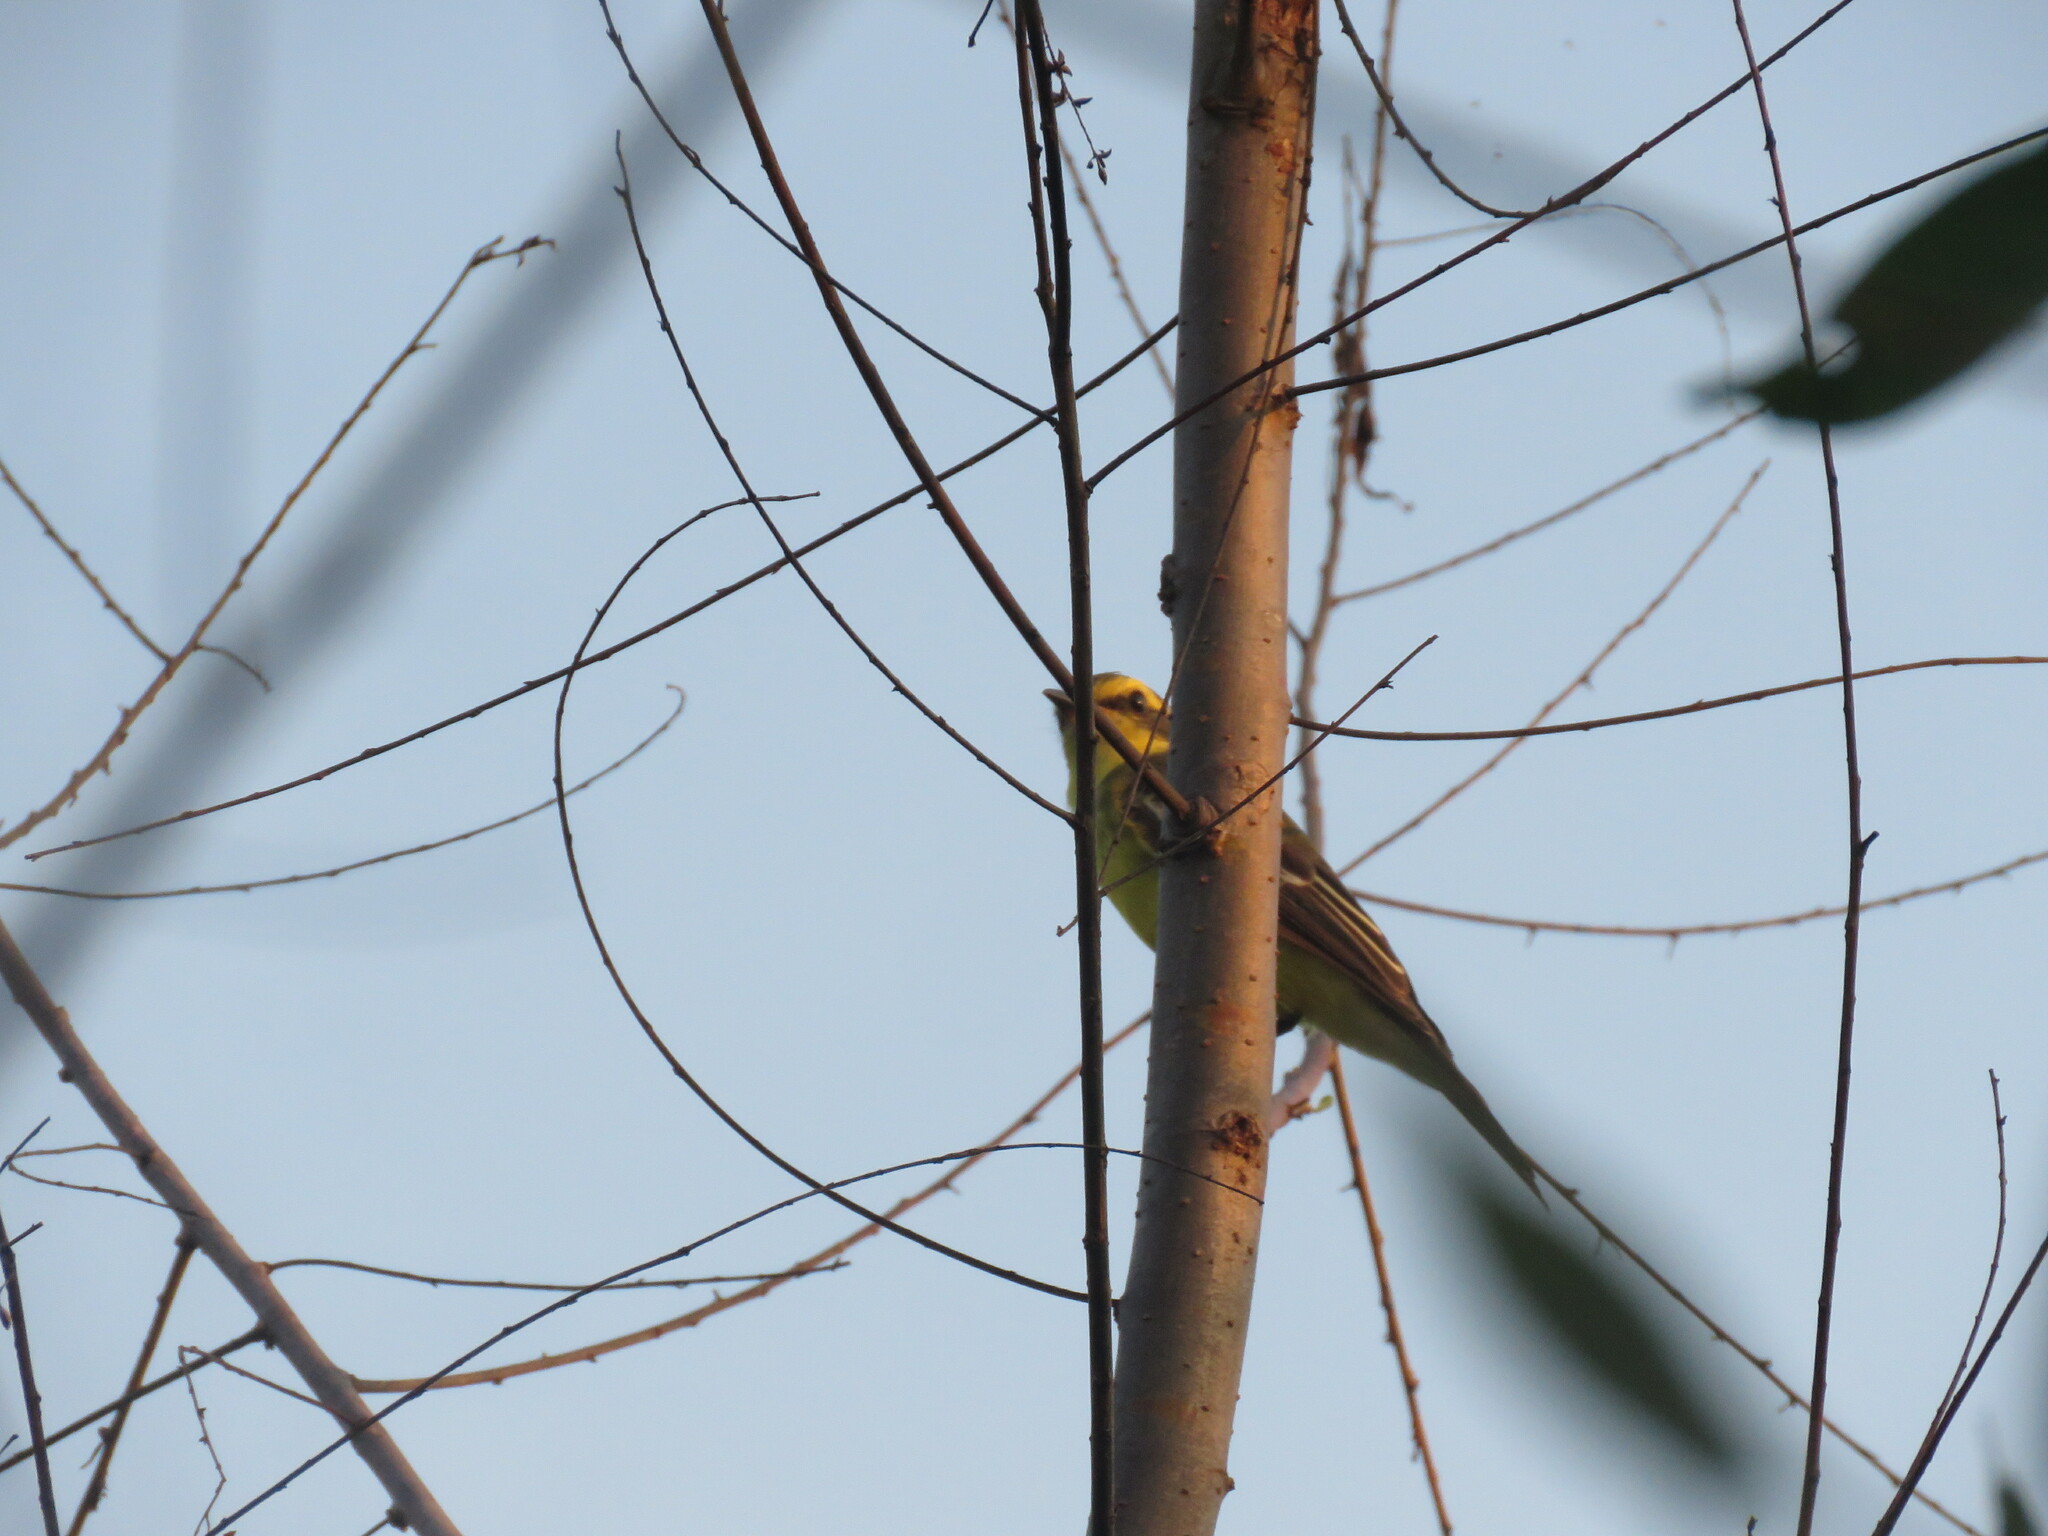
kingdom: Animalia
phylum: Chordata
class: Aves
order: Passeriformes
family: Tyrannidae
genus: Satrapa
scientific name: Satrapa icterophrys
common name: Yellow-browed tyrant
